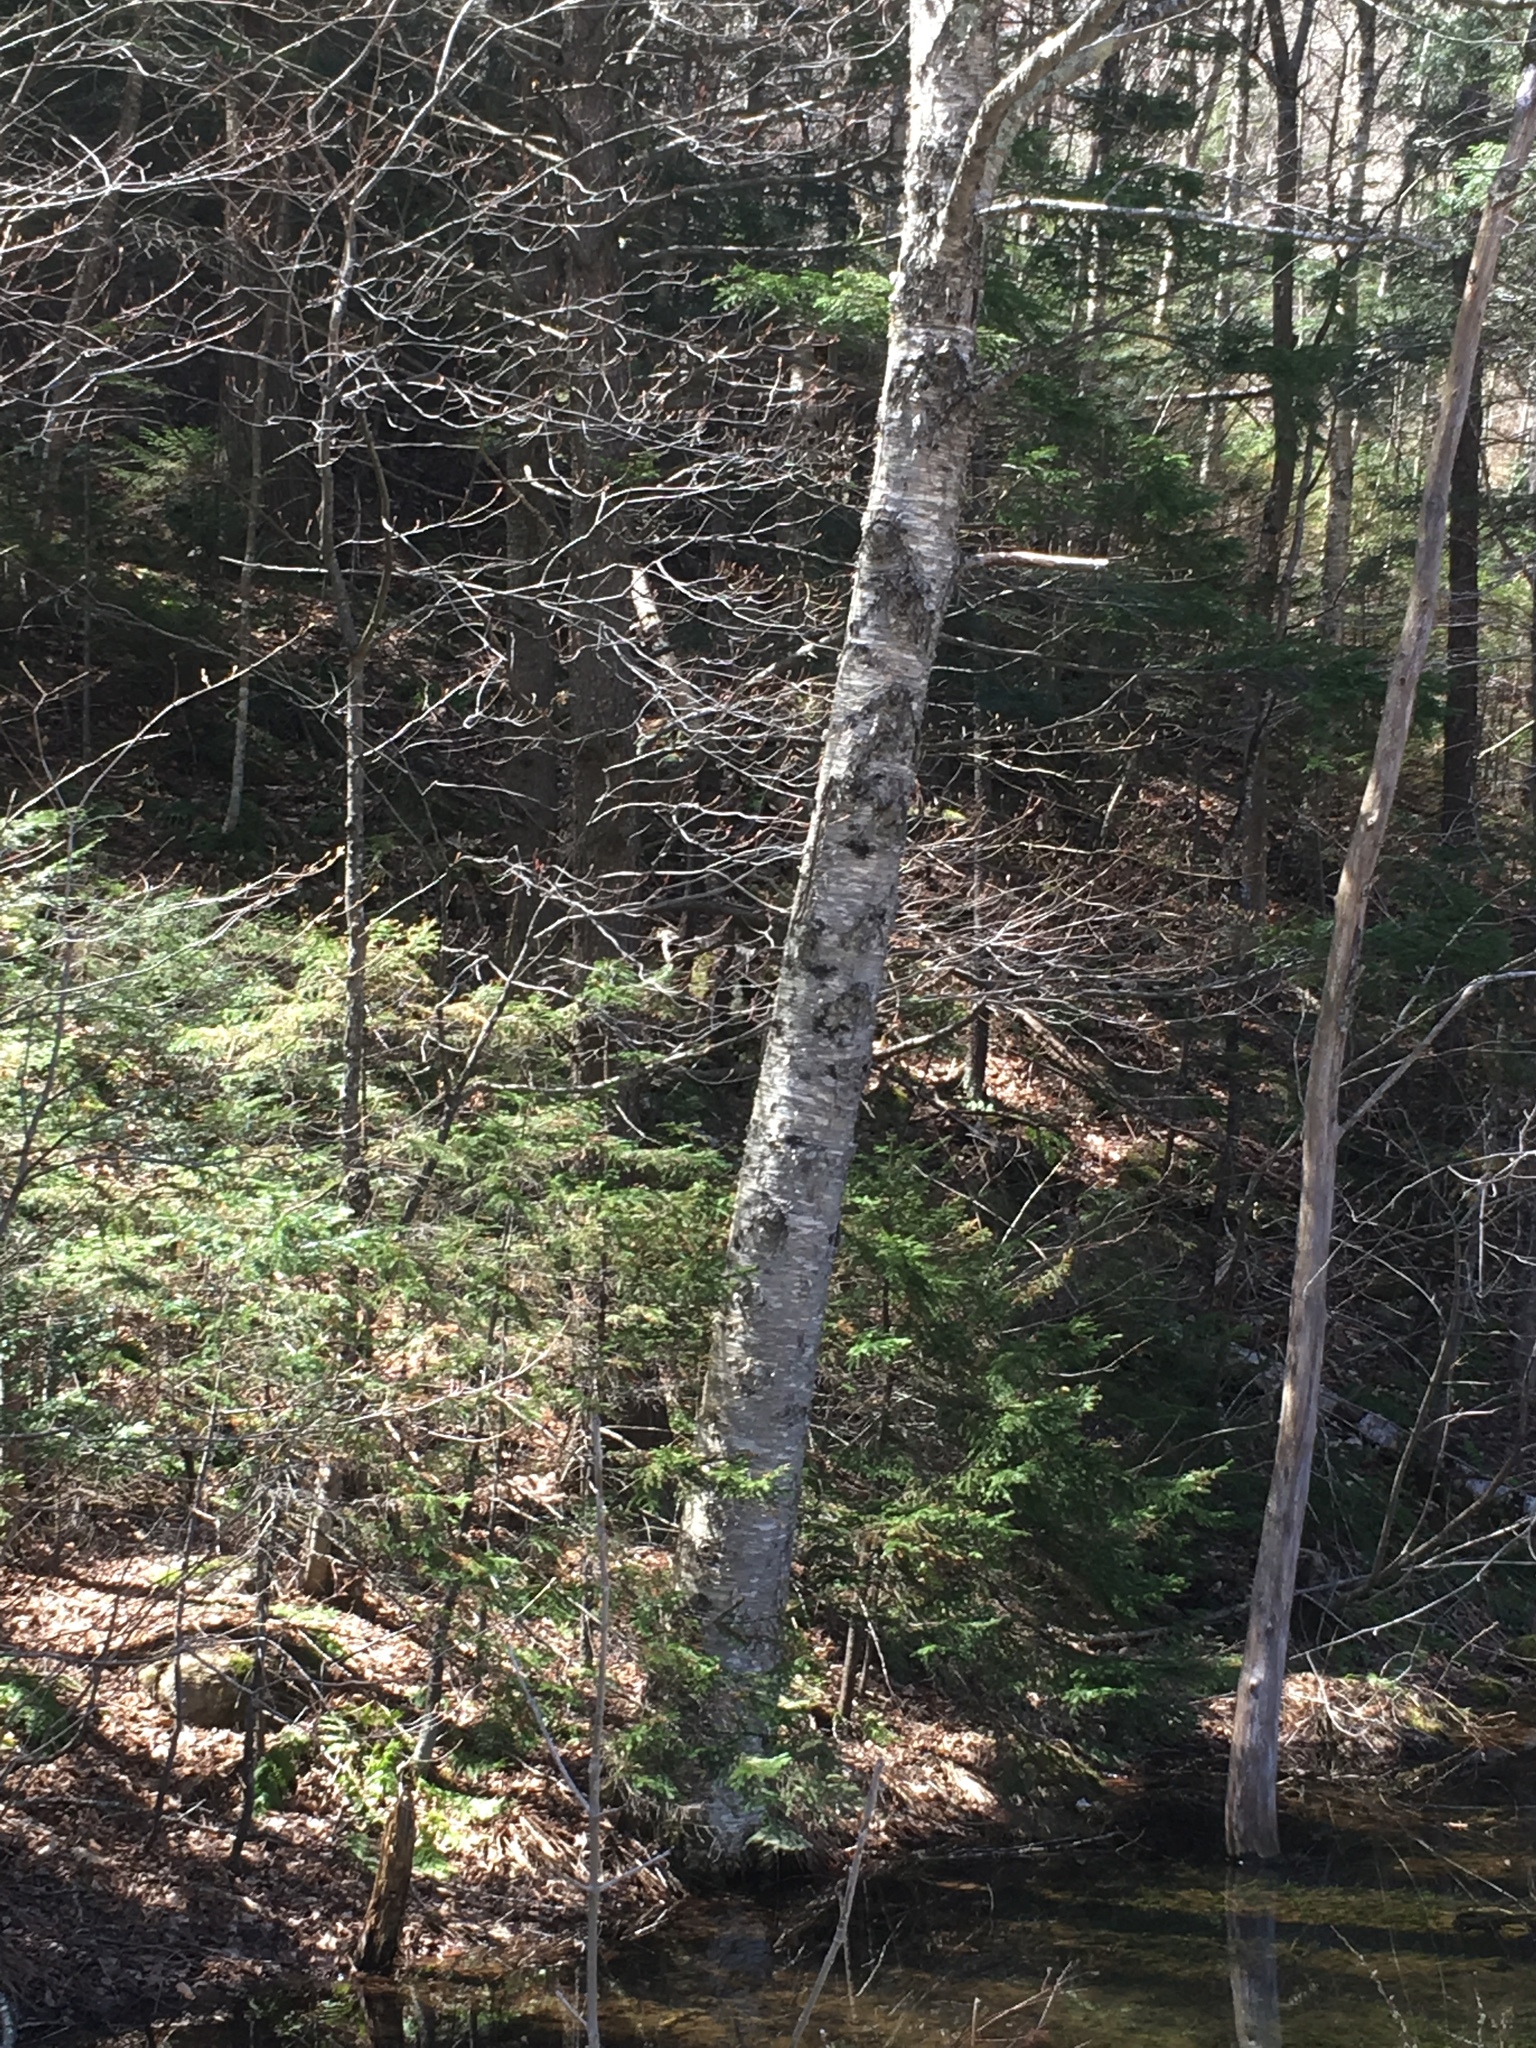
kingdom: Plantae
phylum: Tracheophyta
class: Magnoliopsida
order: Fagales
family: Betulaceae
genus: Betula
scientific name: Betula alleghaniensis
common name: Yellow birch
